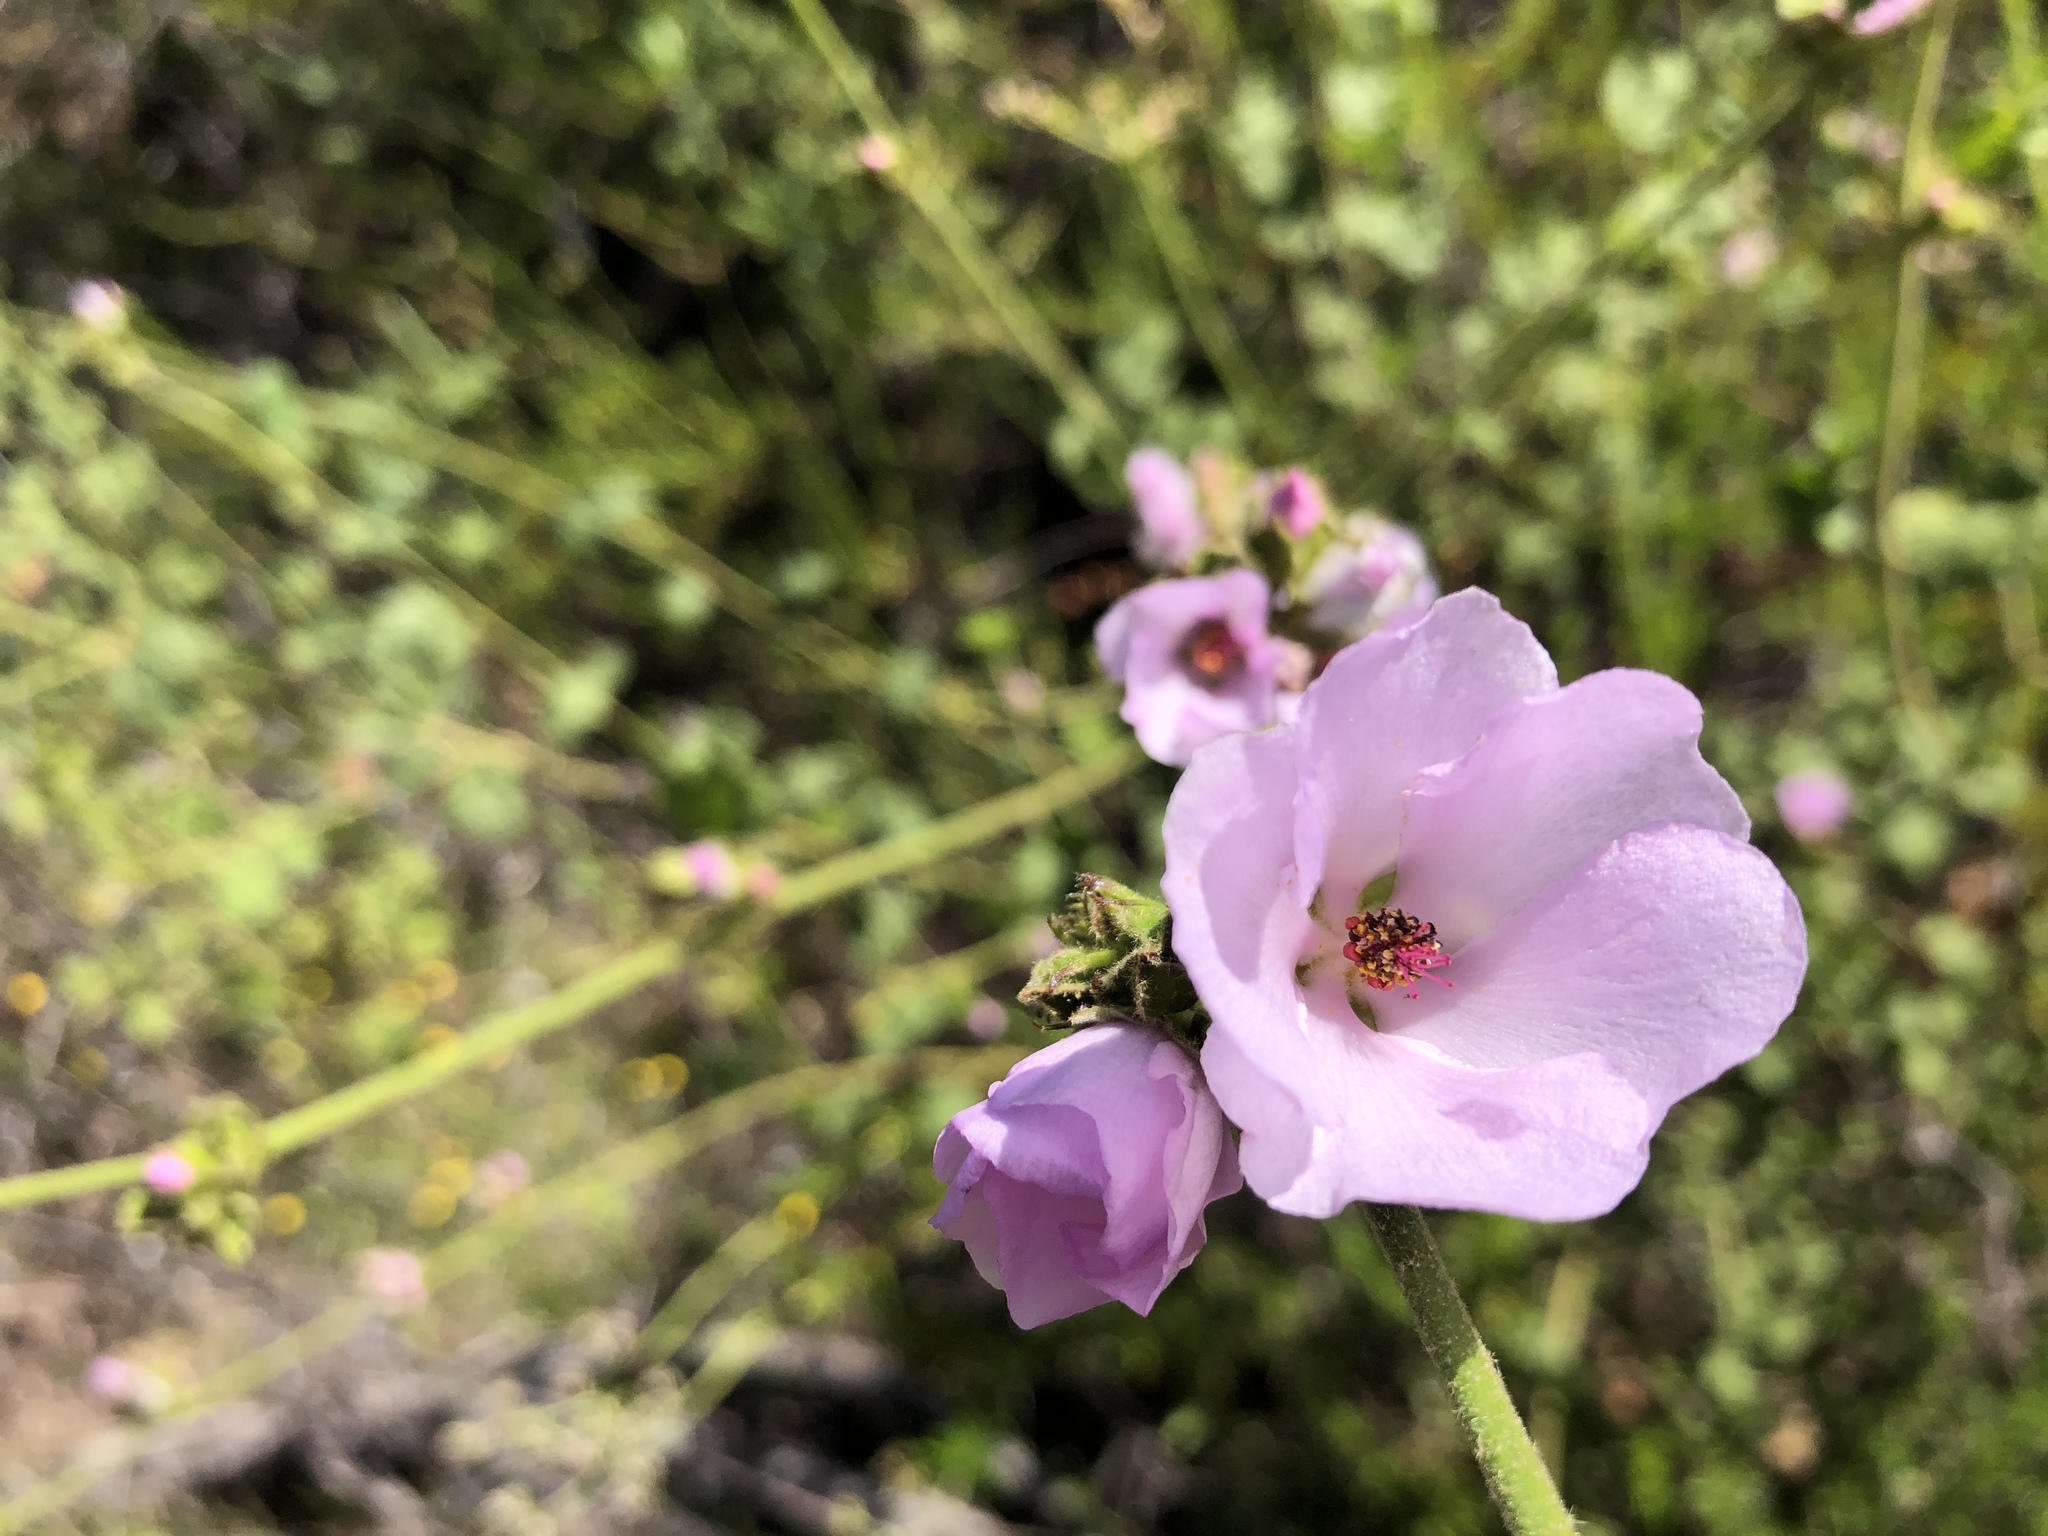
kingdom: Plantae
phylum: Tracheophyta
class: Magnoliopsida
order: Malvales
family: Malvaceae
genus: Malacothamnus
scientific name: Malacothamnus densiflorus
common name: Yellow-stem bush-mallow
